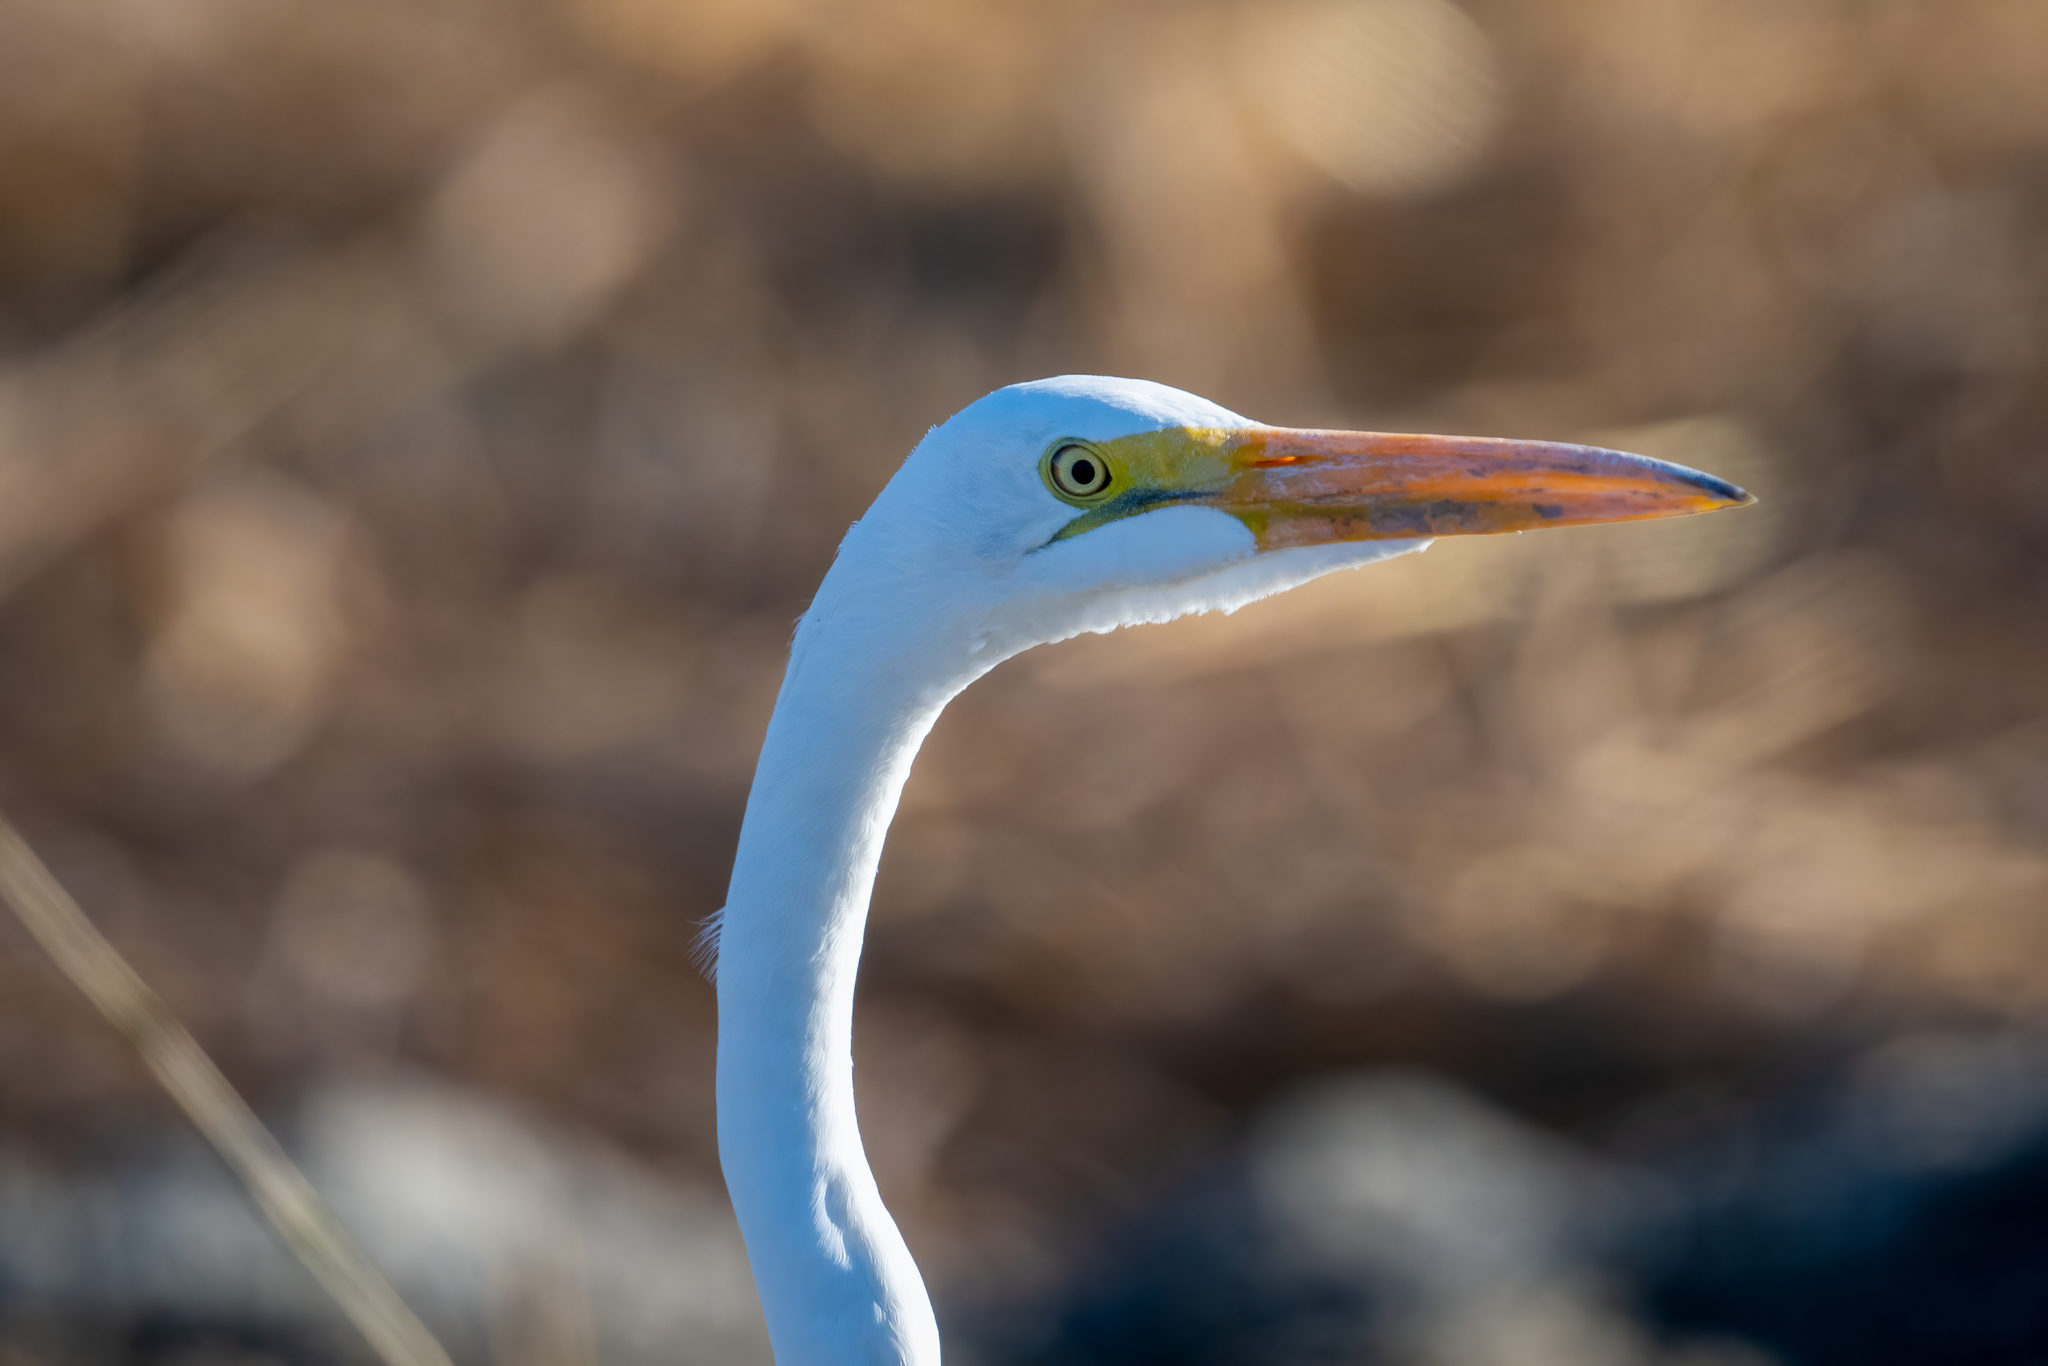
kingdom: Animalia
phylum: Chordata
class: Aves
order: Pelecaniformes
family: Ardeidae
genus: Ardea
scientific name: Ardea alba
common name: Great egret
